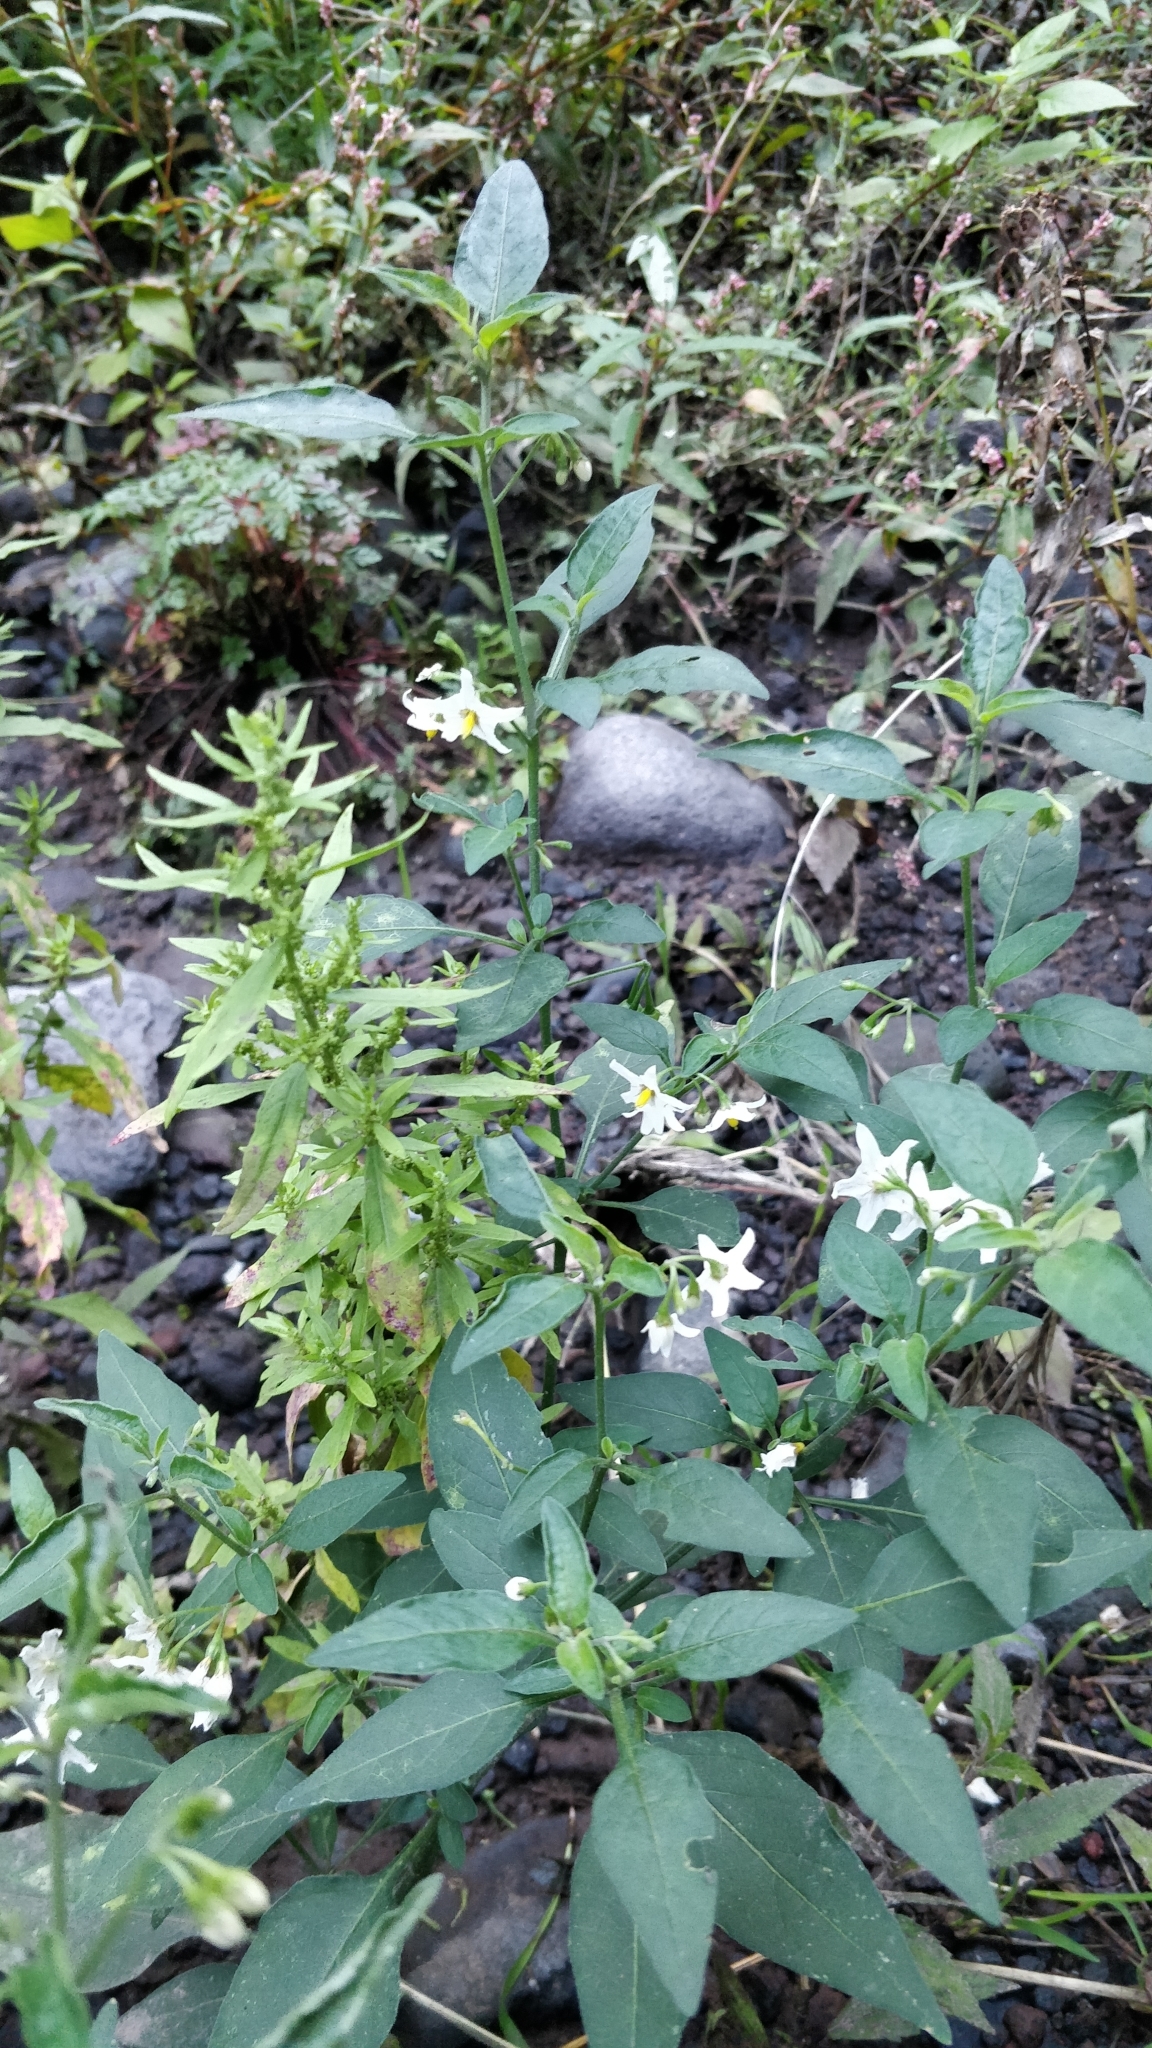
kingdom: Plantae
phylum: Tracheophyta
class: Magnoliopsida
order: Solanales
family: Solanaceae
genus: Solanum
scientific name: Solanum chenopodioides
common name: Tall nightshade
